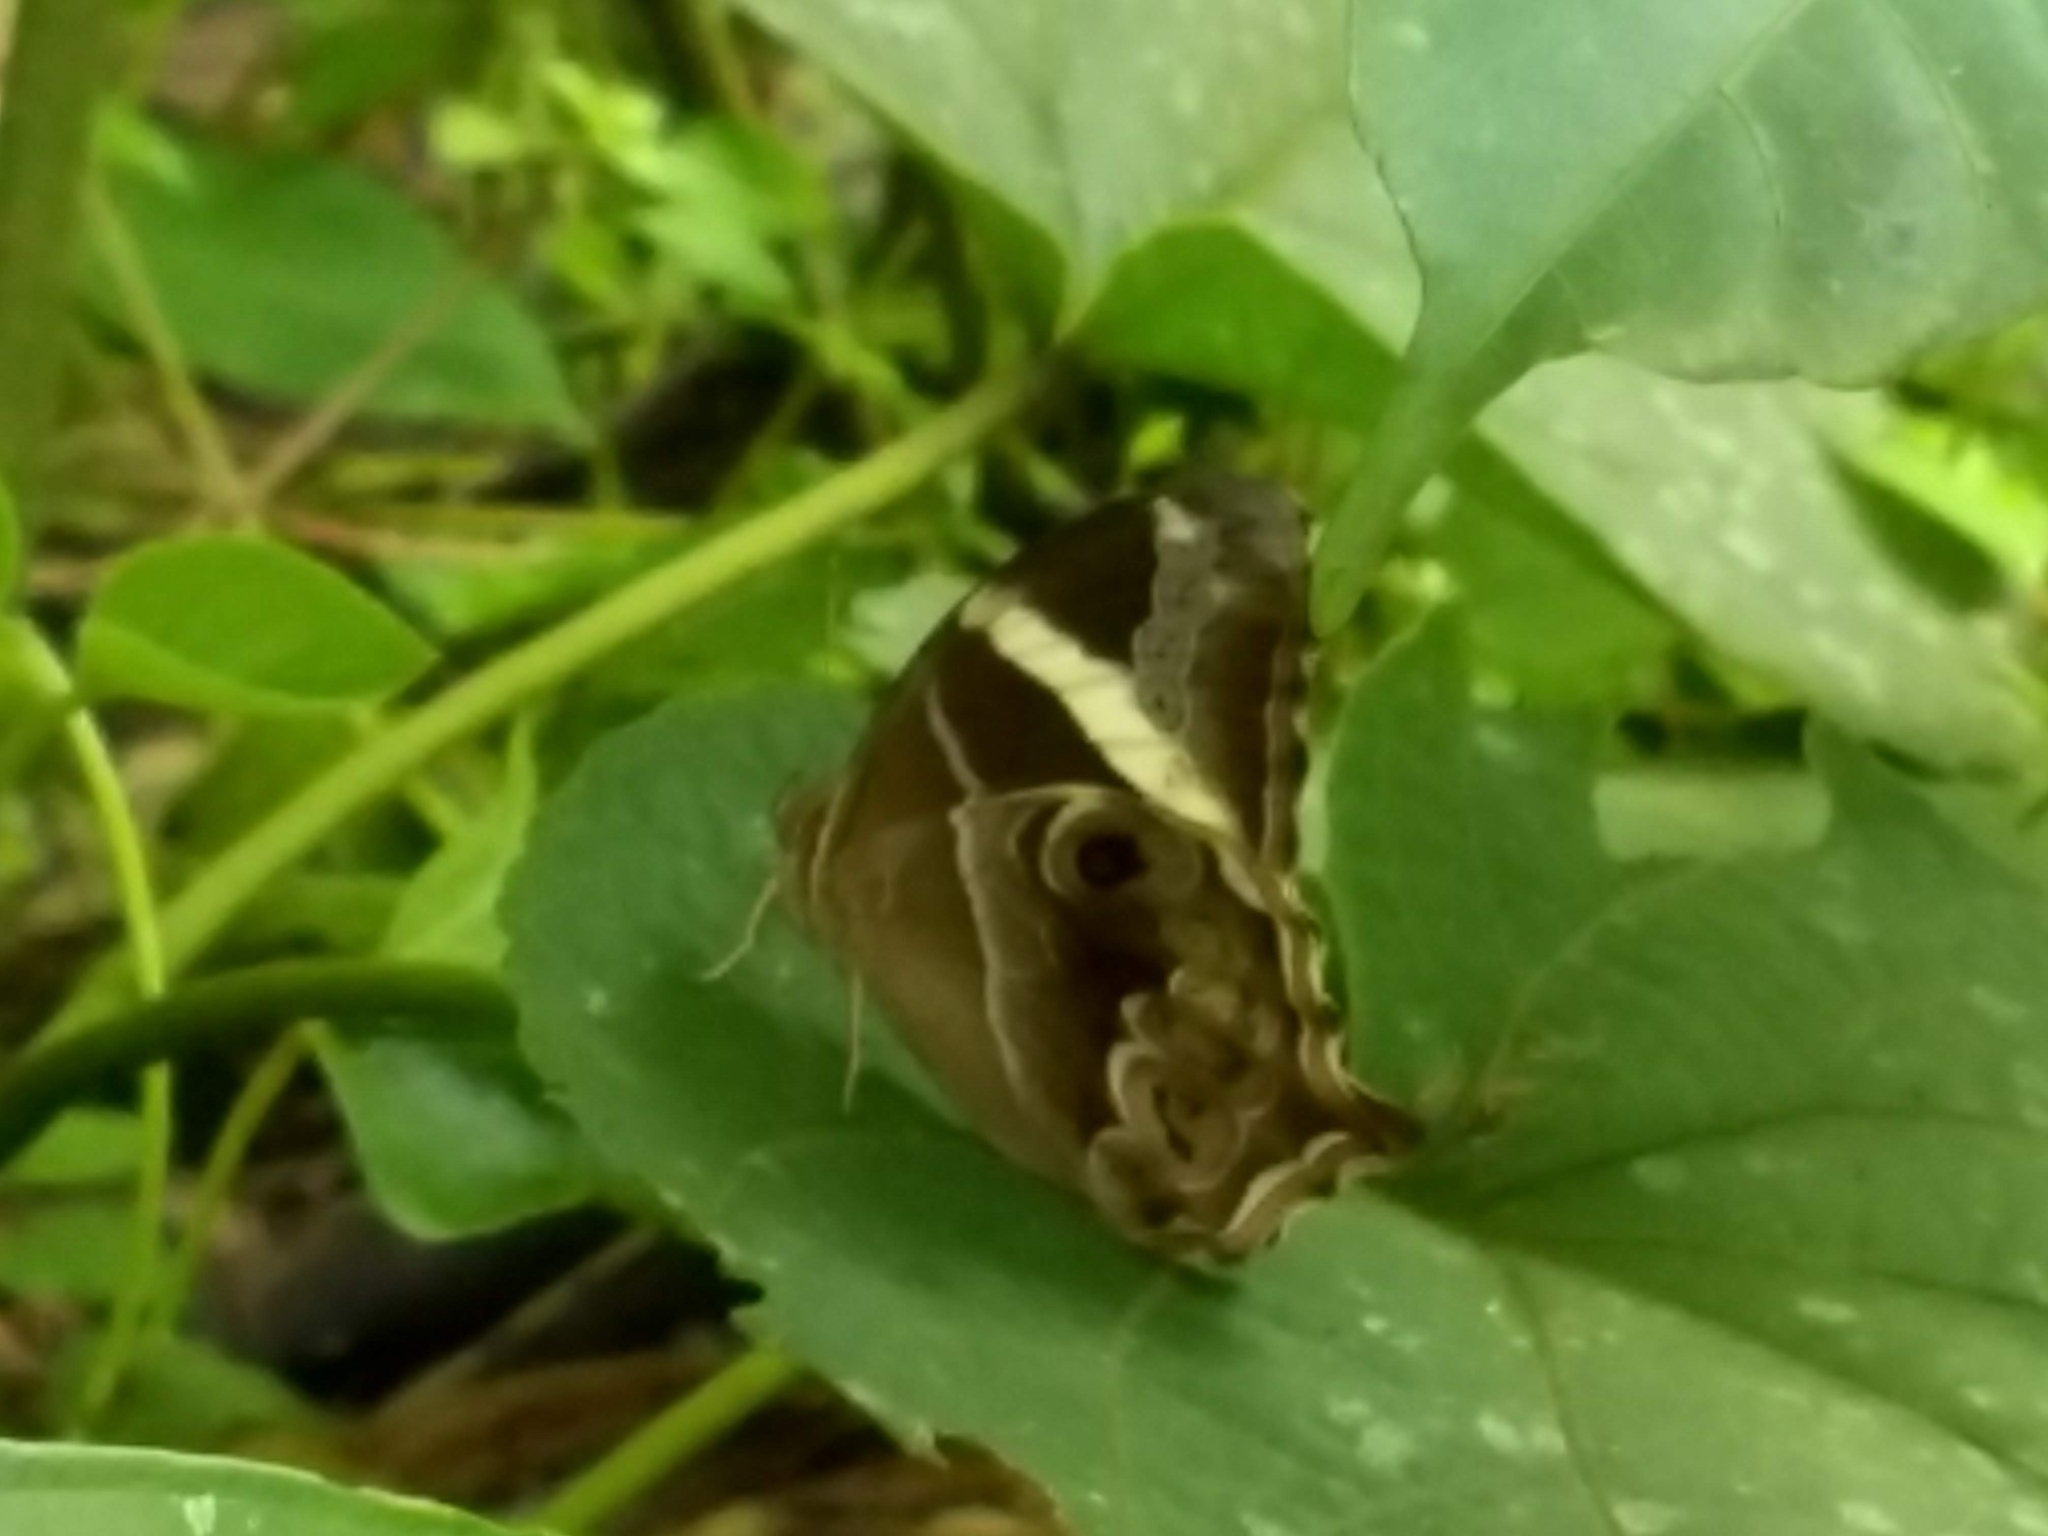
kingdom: Animalia
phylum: Arthropoda
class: Insecta
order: Lepidoptera
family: Nymphalidae
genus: Lethe
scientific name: Lethe europa
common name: Bamboo treebrown
